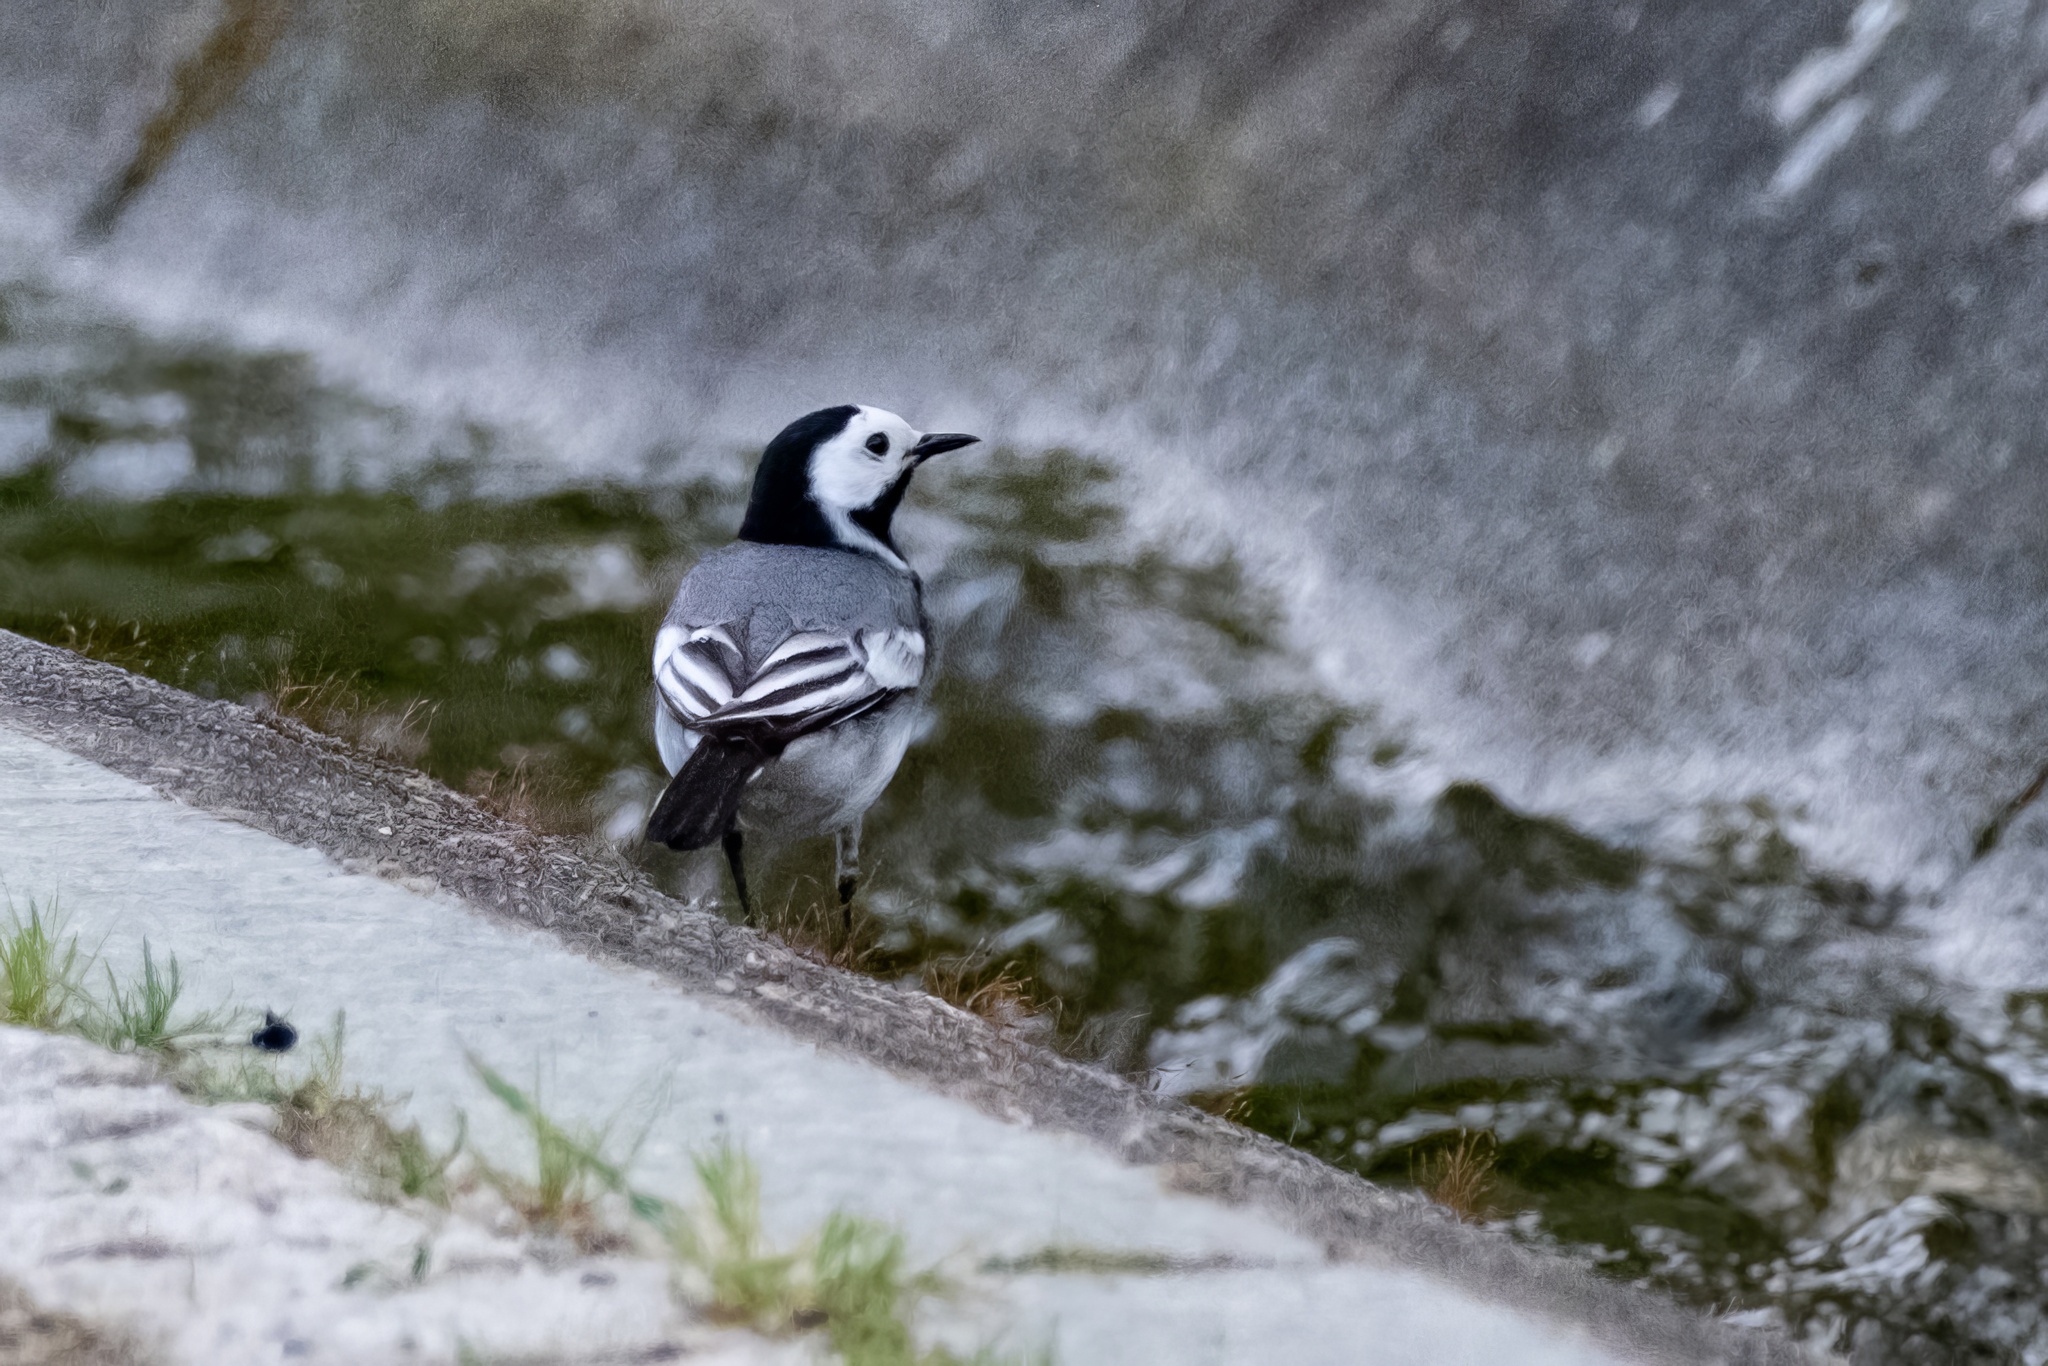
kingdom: Animalia
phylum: Chordata
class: Aves
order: Passeriformes
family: Motacillidae
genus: Motacilla
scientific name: Motacilla alba
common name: White wagtail
